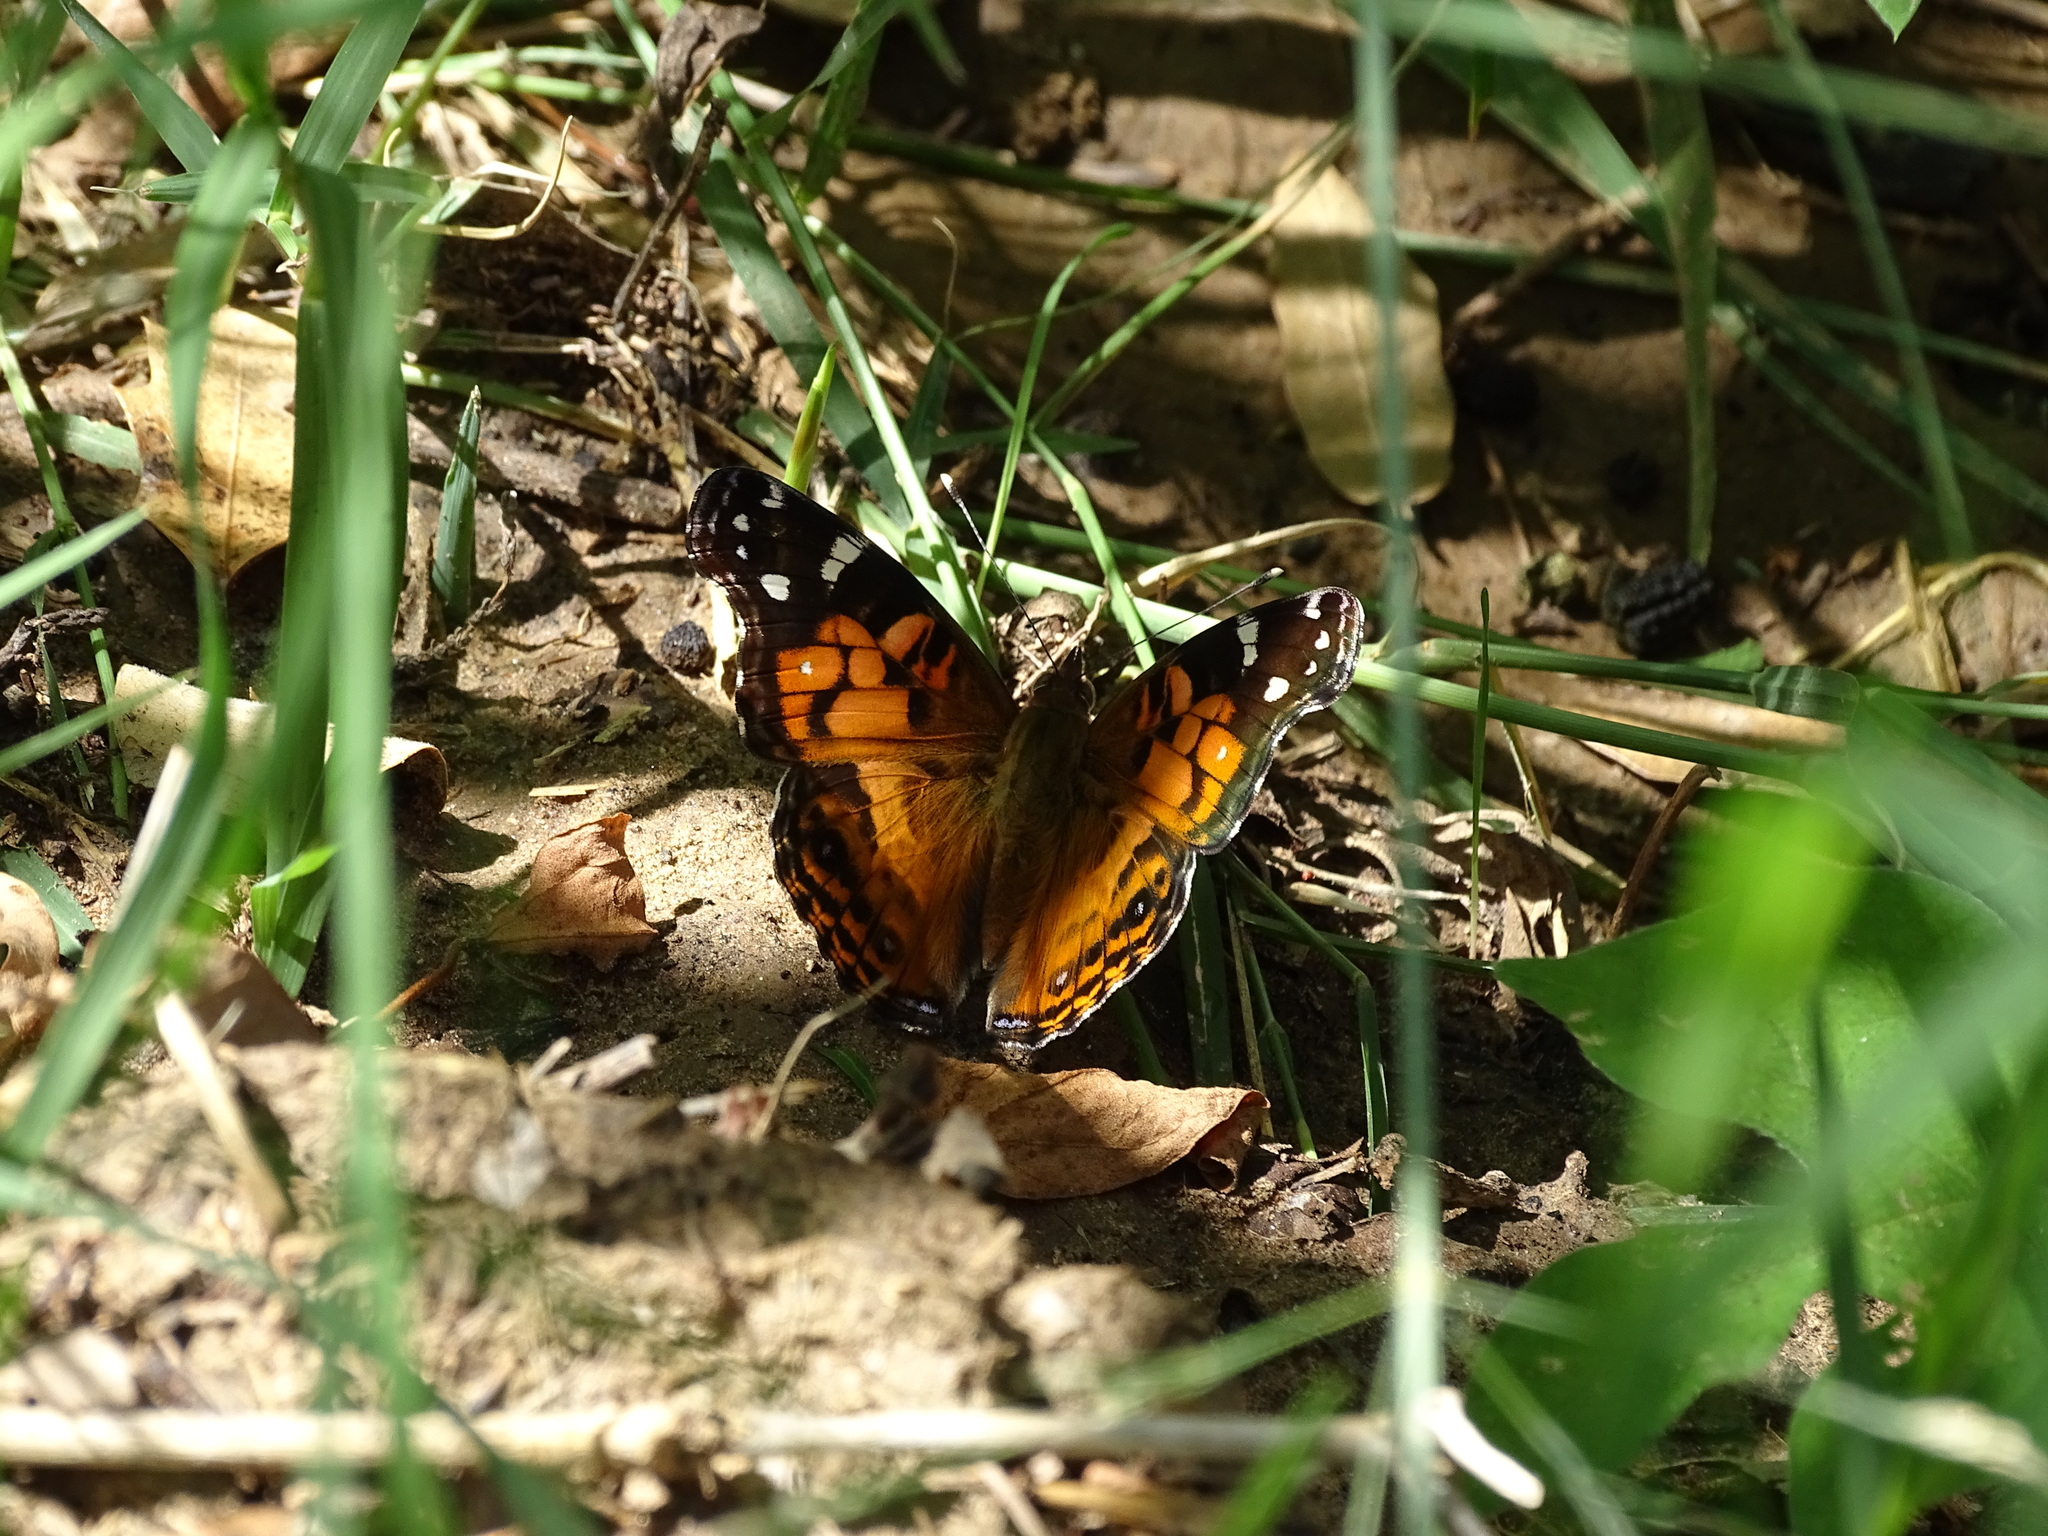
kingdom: Animalia
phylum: Arthropoda
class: Insecta
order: Lepidoptera
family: Nymphalidae
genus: Vanessa
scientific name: Vanessa virginiensis
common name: American lady
